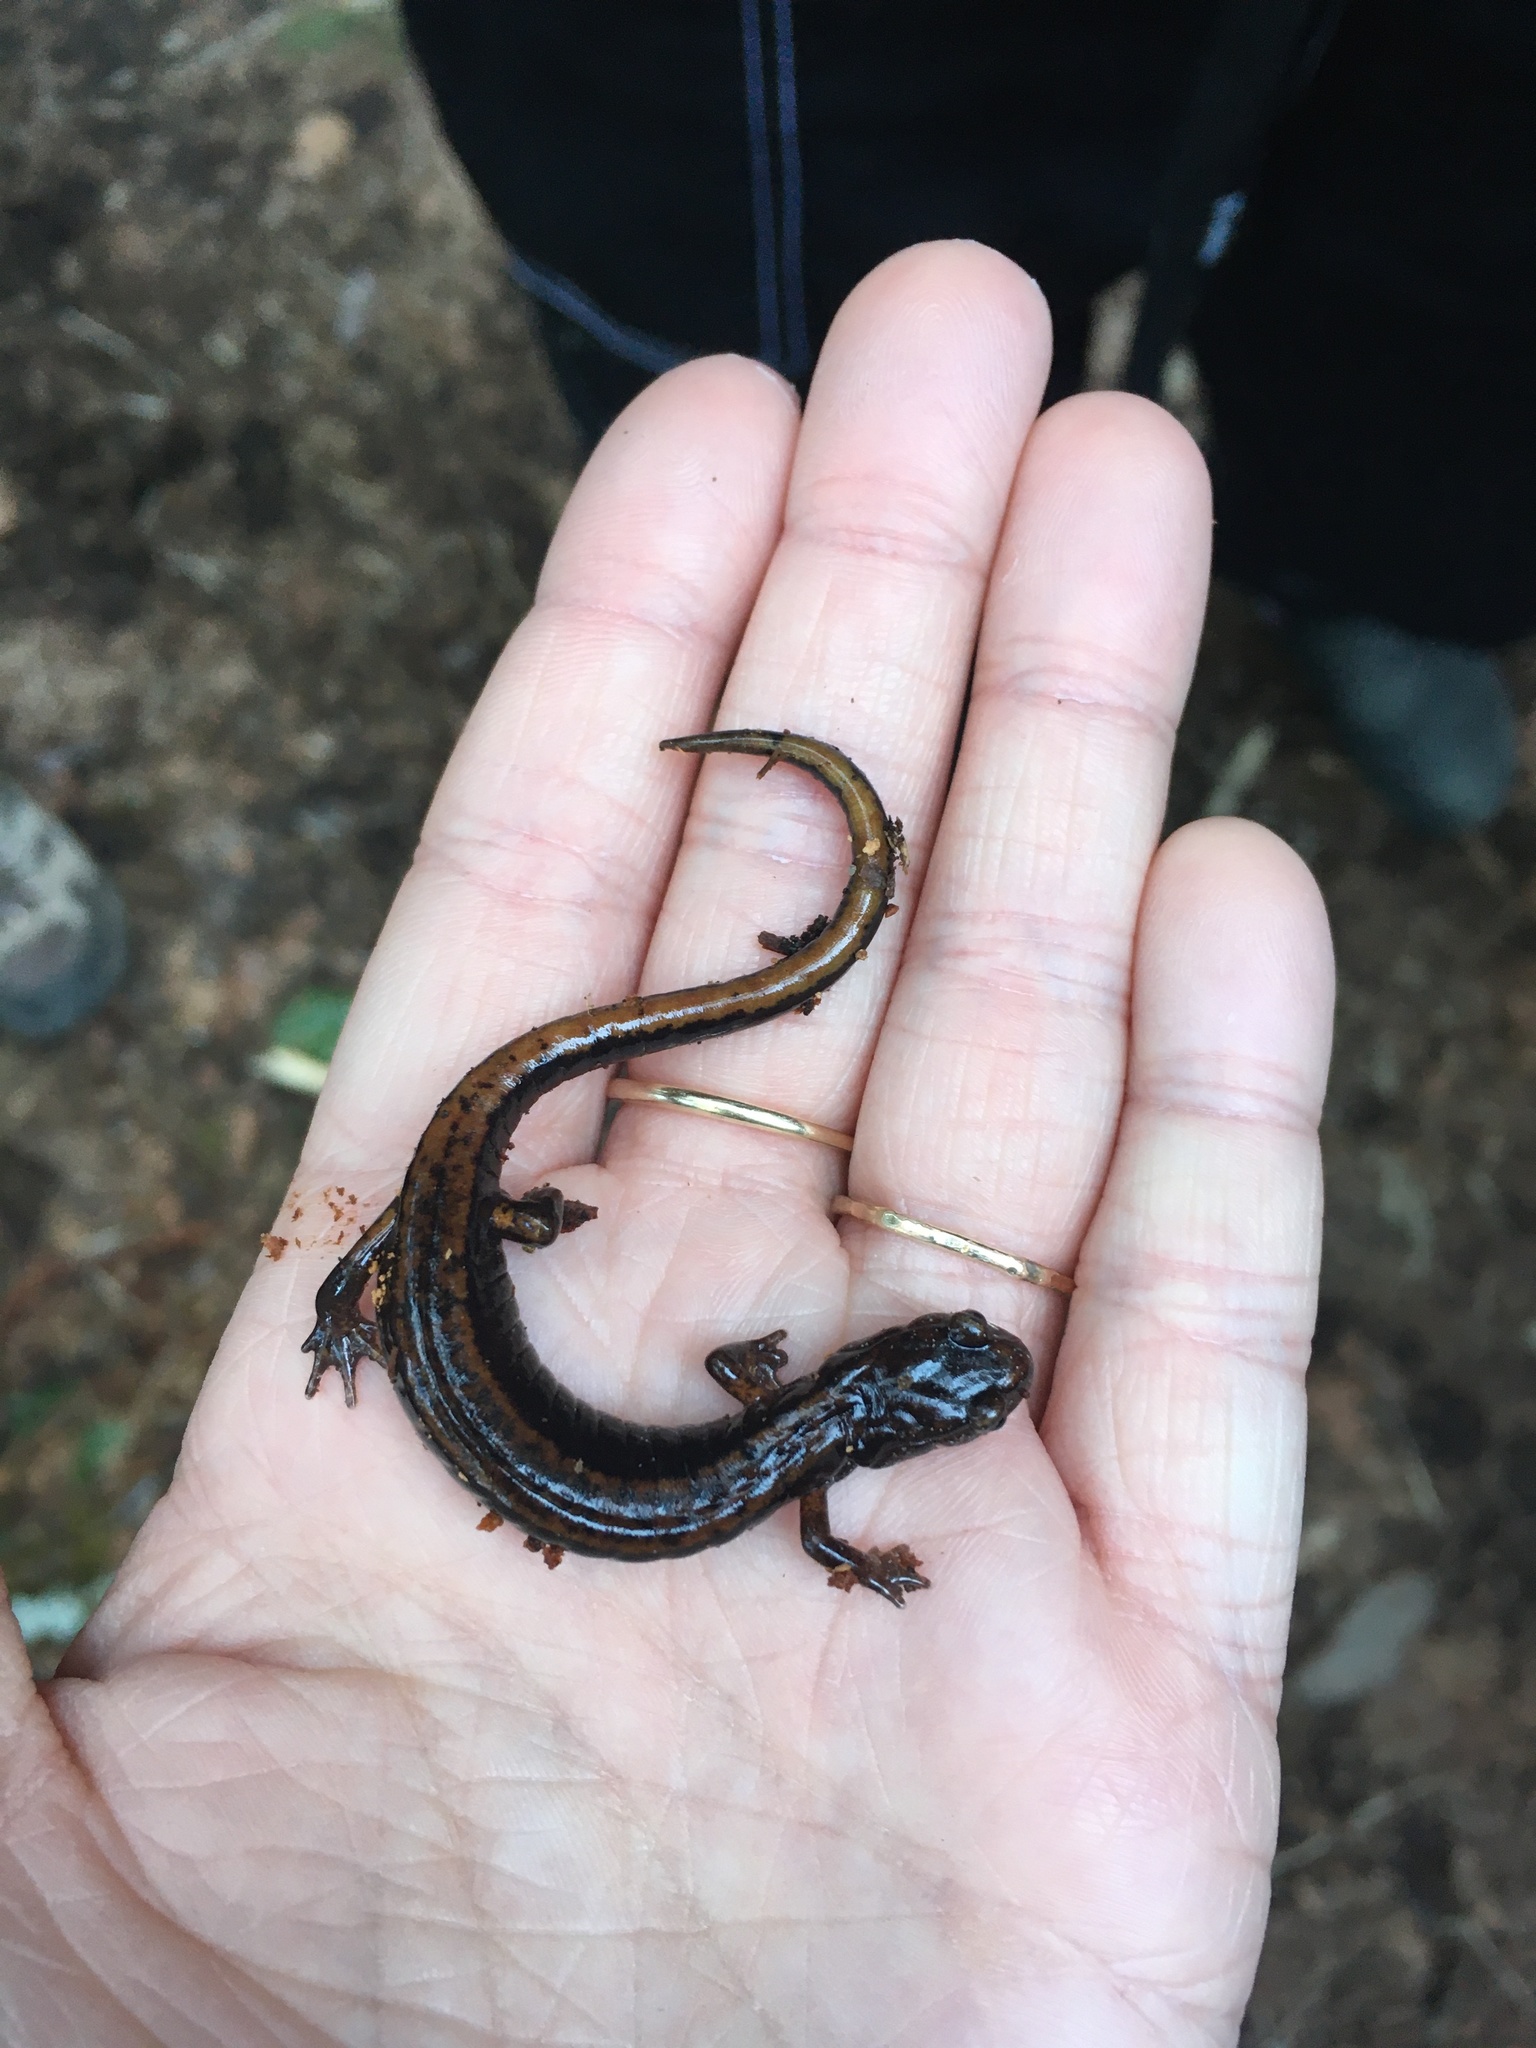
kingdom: Animalia
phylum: Chordata
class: Amphibia
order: Caudata
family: Plethodontidae
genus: Plethodon
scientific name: Plethodon vehiculum
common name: Western red-backed salamander
